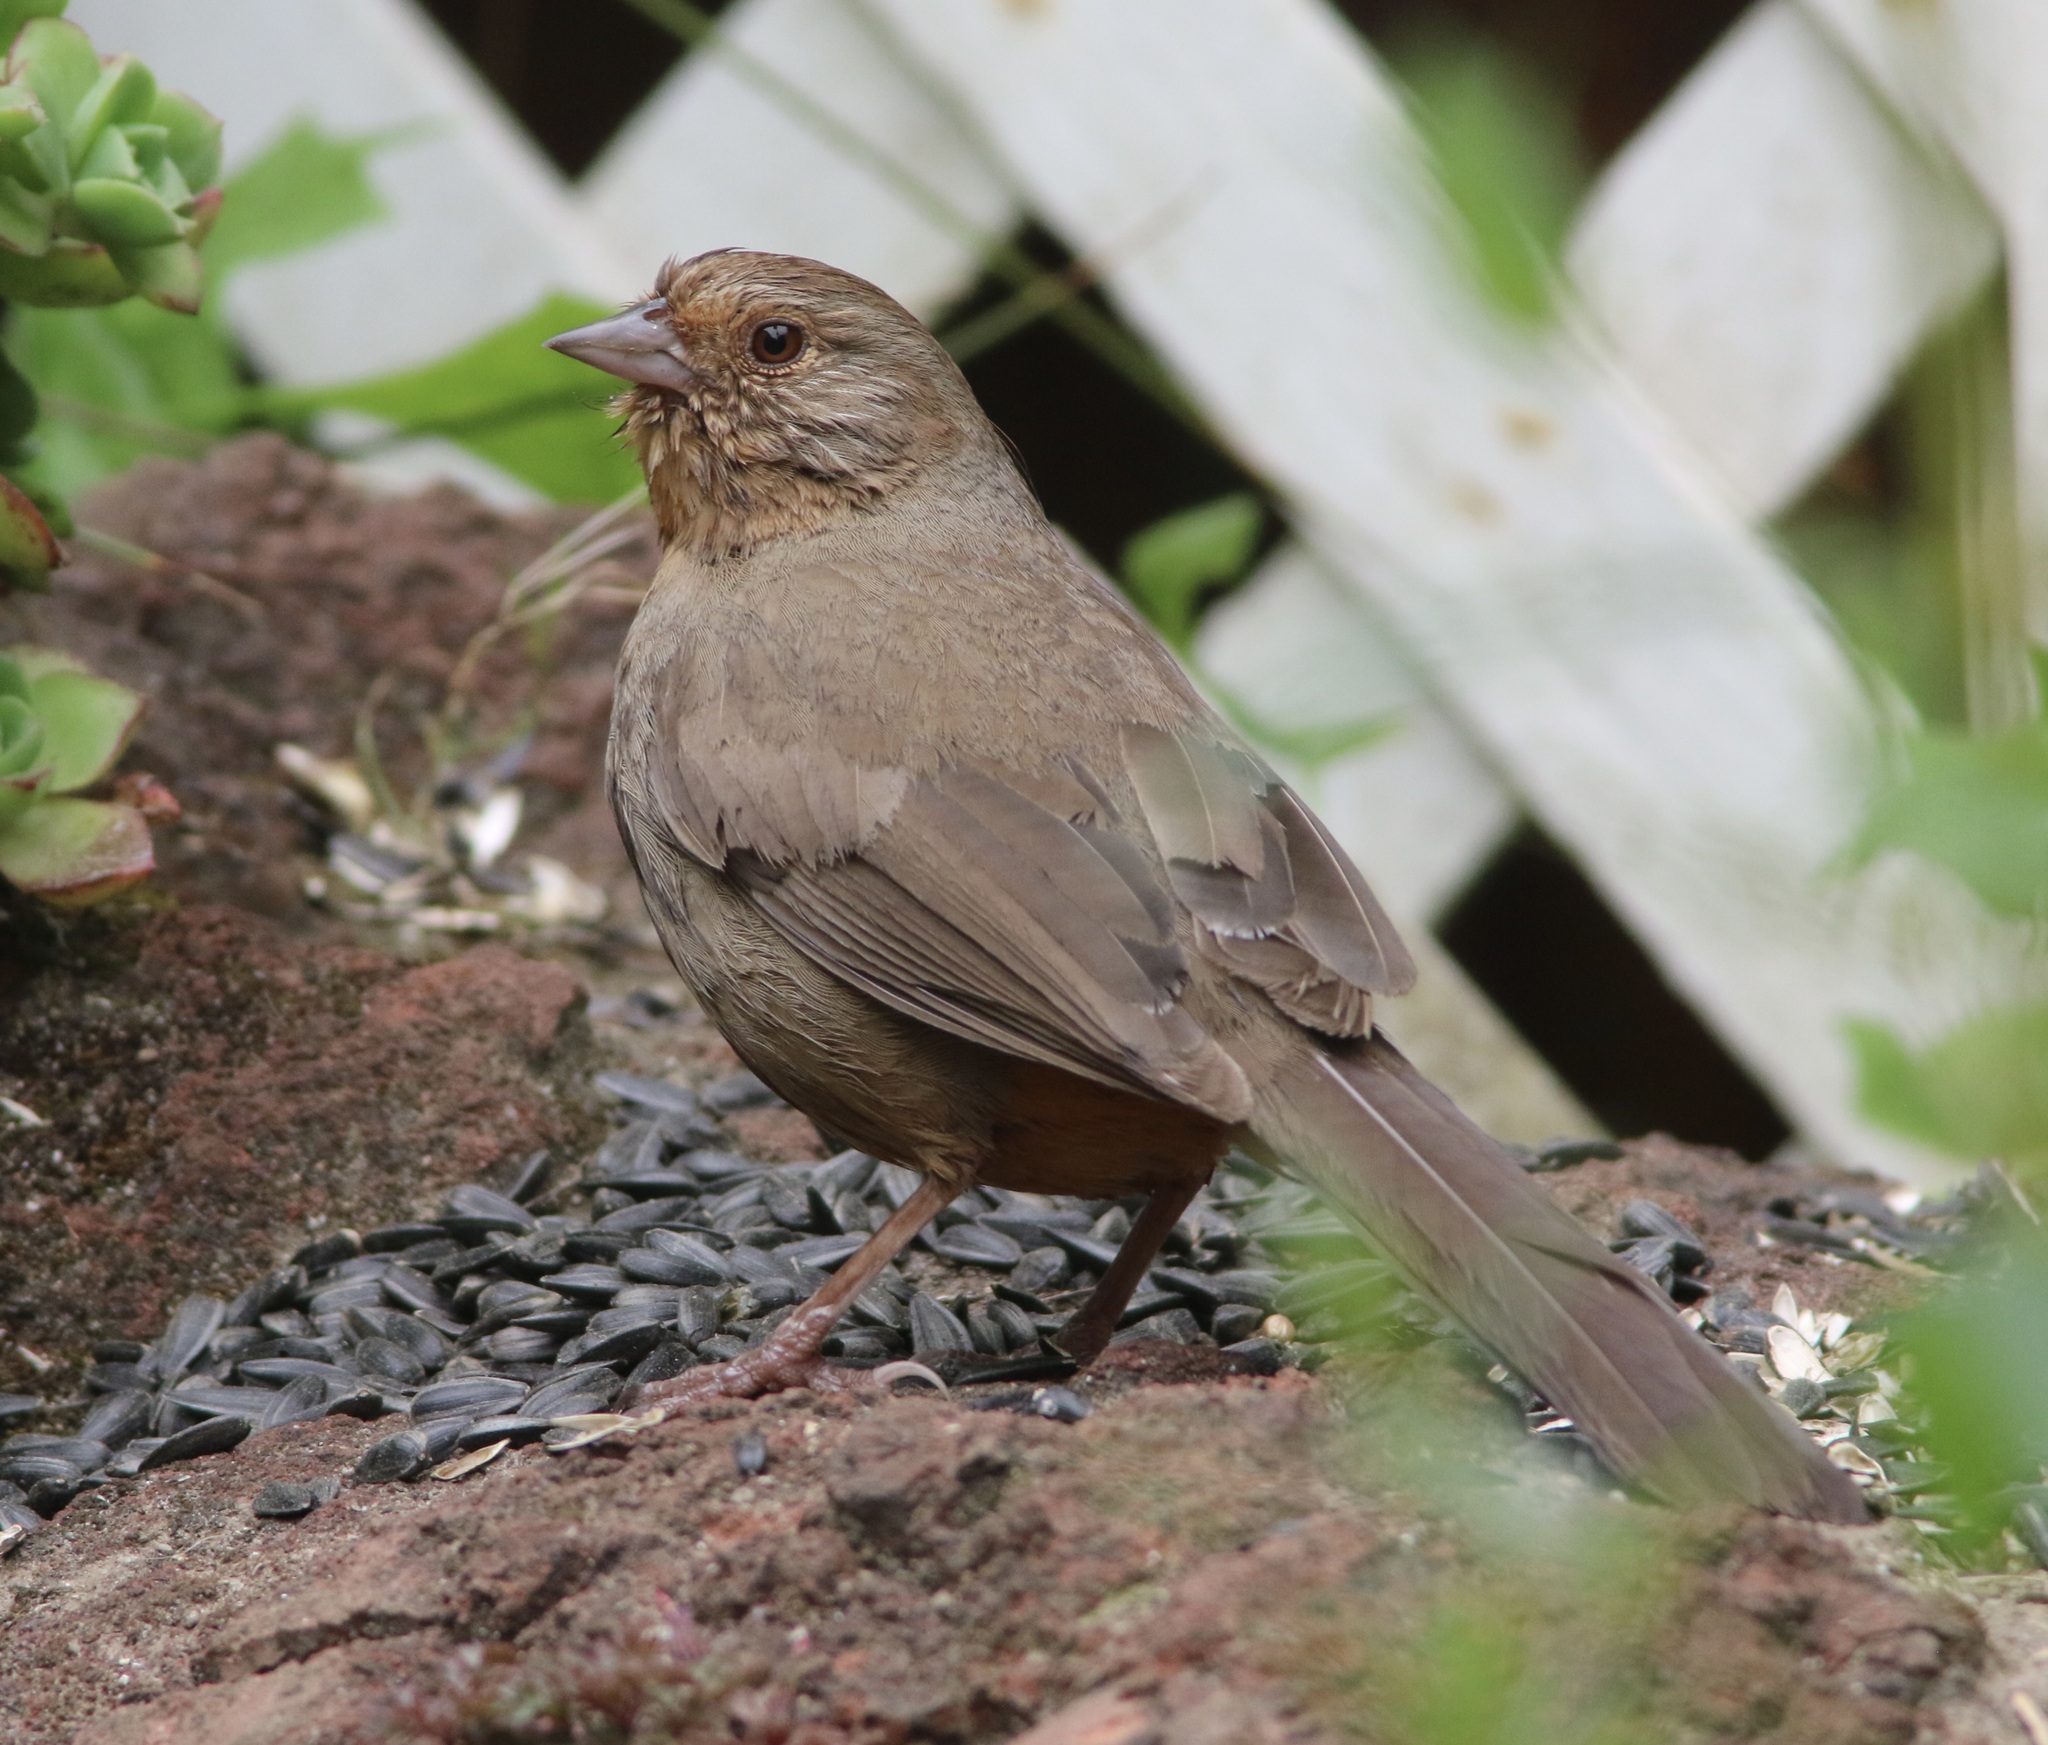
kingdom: Animalia
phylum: Chordata
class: Aves
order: Passeriformes
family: Passerellidae
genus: Melozone
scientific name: Melozone crissalis
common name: California towhee
